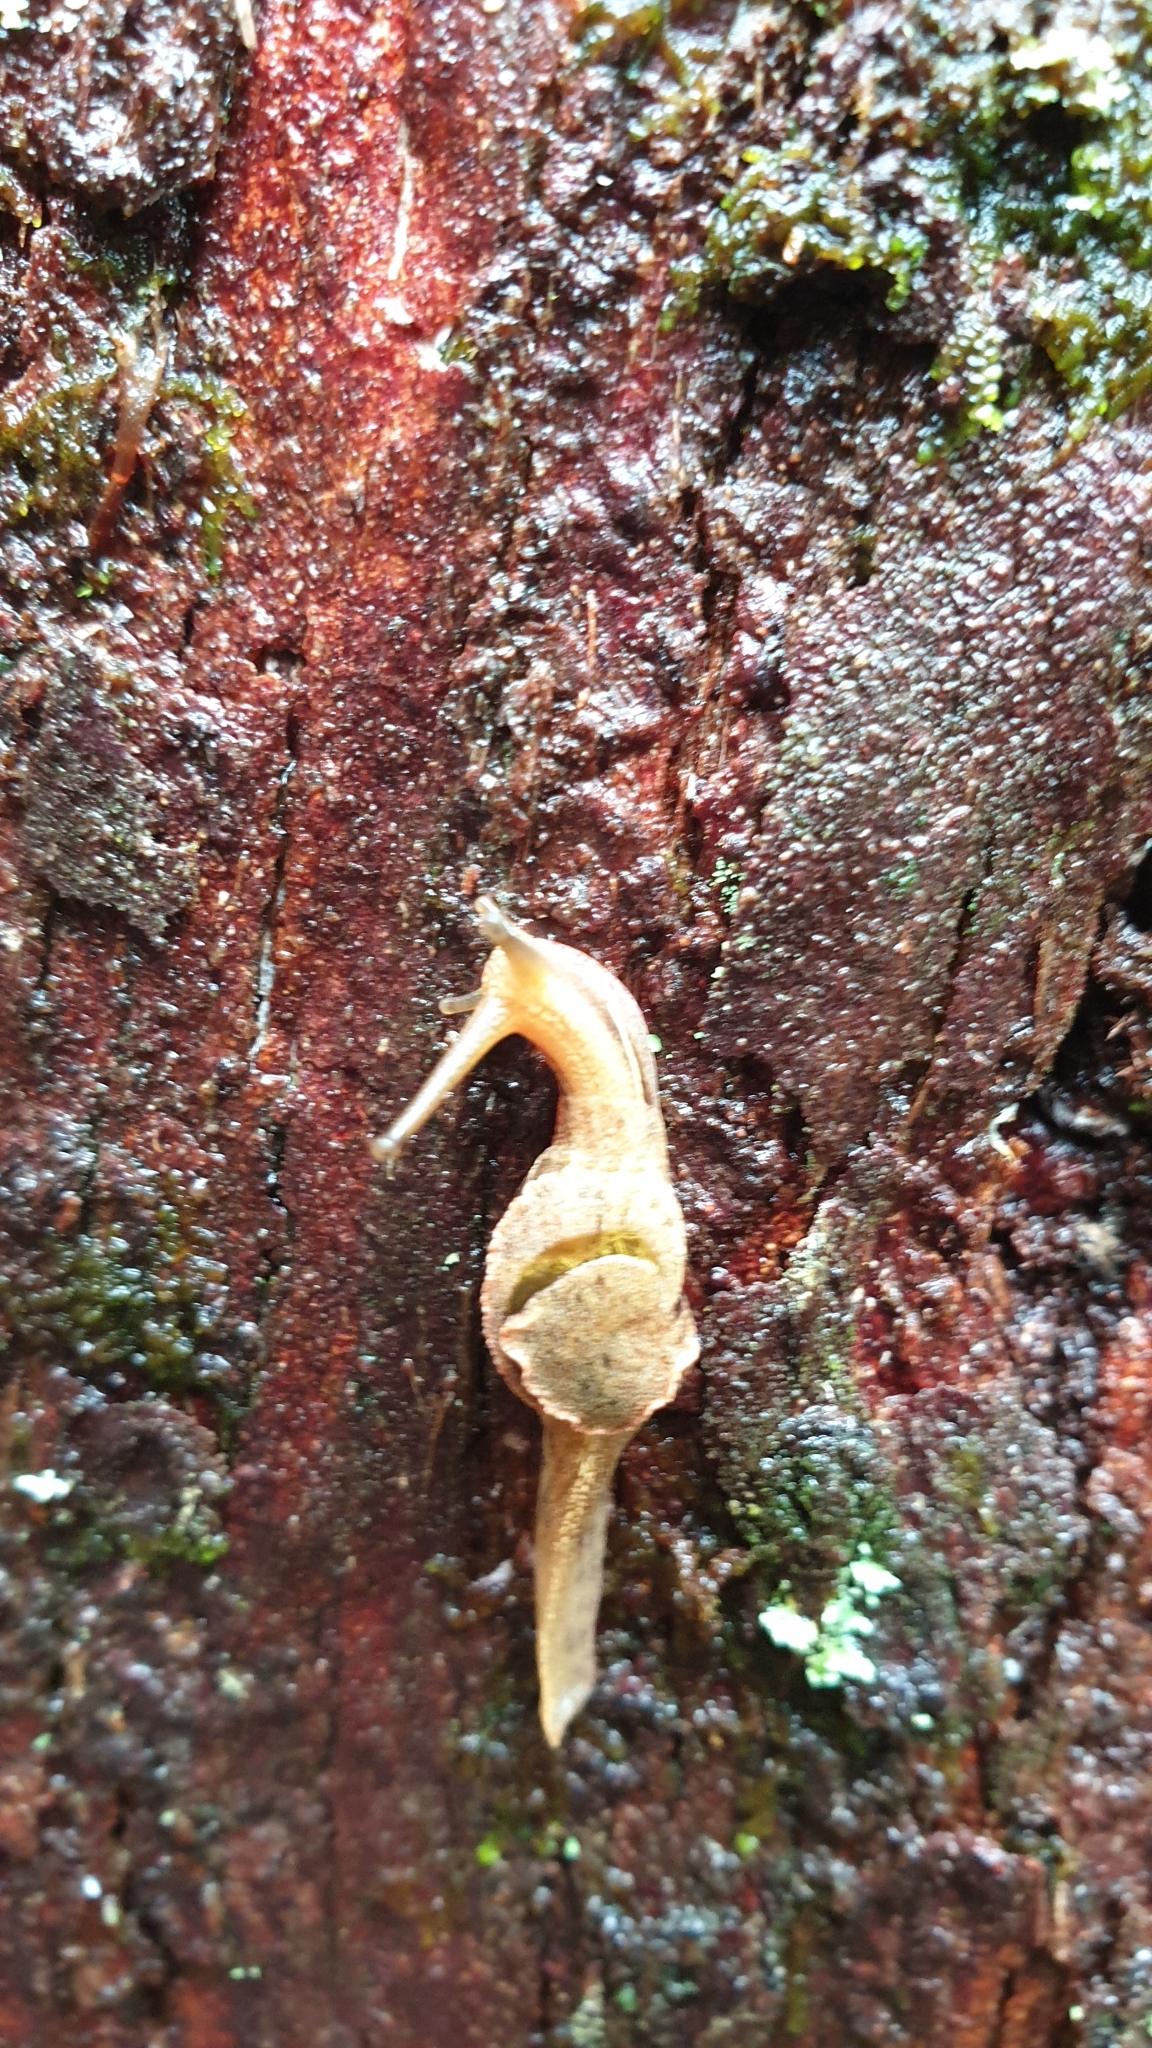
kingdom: Animalia
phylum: Mollusca
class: Gastropoda
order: Stylommatophora
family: Helicarionidae
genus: Parmavitrina
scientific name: Parmavitrina planilabris
